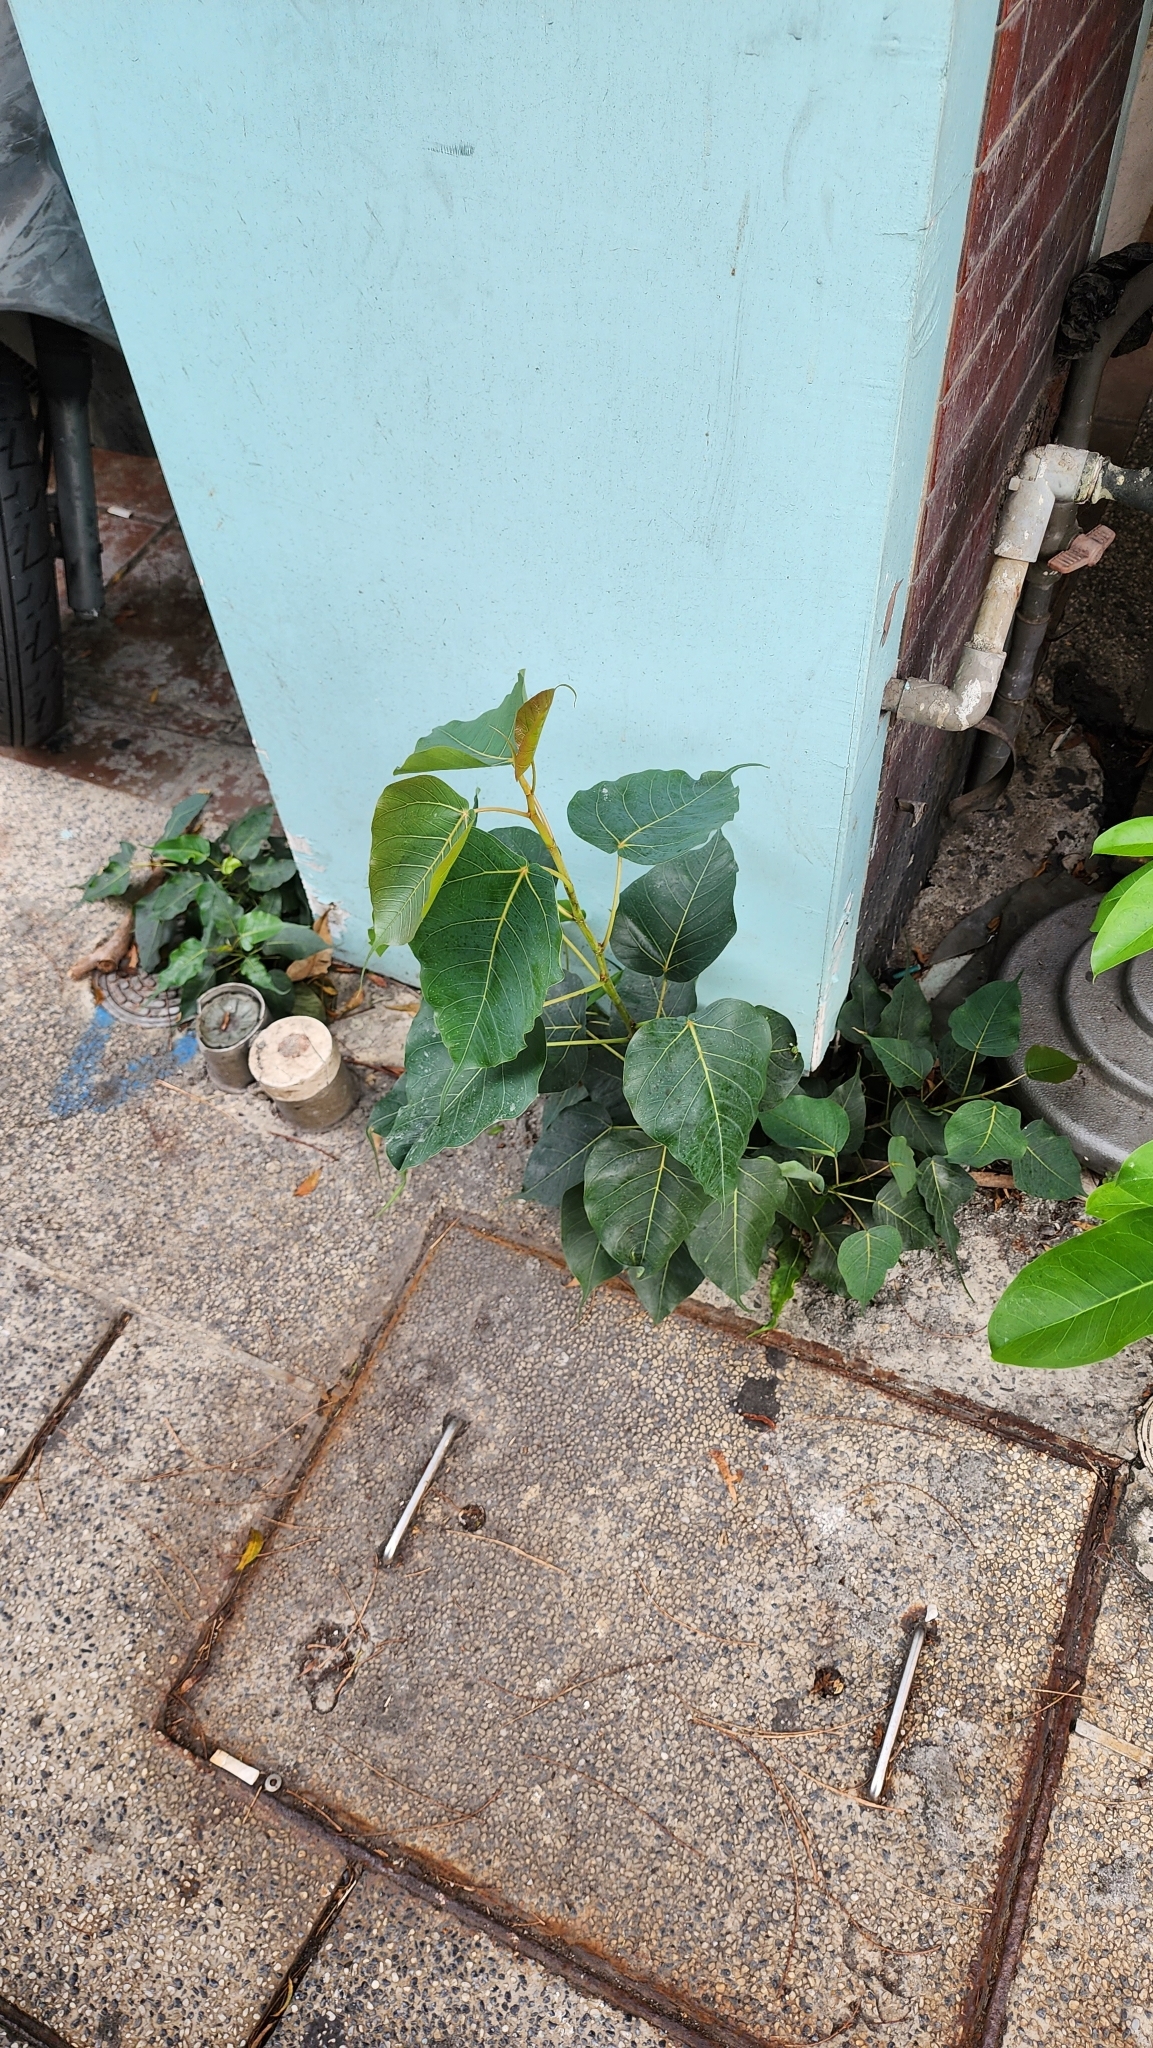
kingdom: Plantae
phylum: Tracheophyta
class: Magnoliopsida
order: Rosales
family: Moraceae
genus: Ficus
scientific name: Ficus religiosa
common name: Bodhi tree
